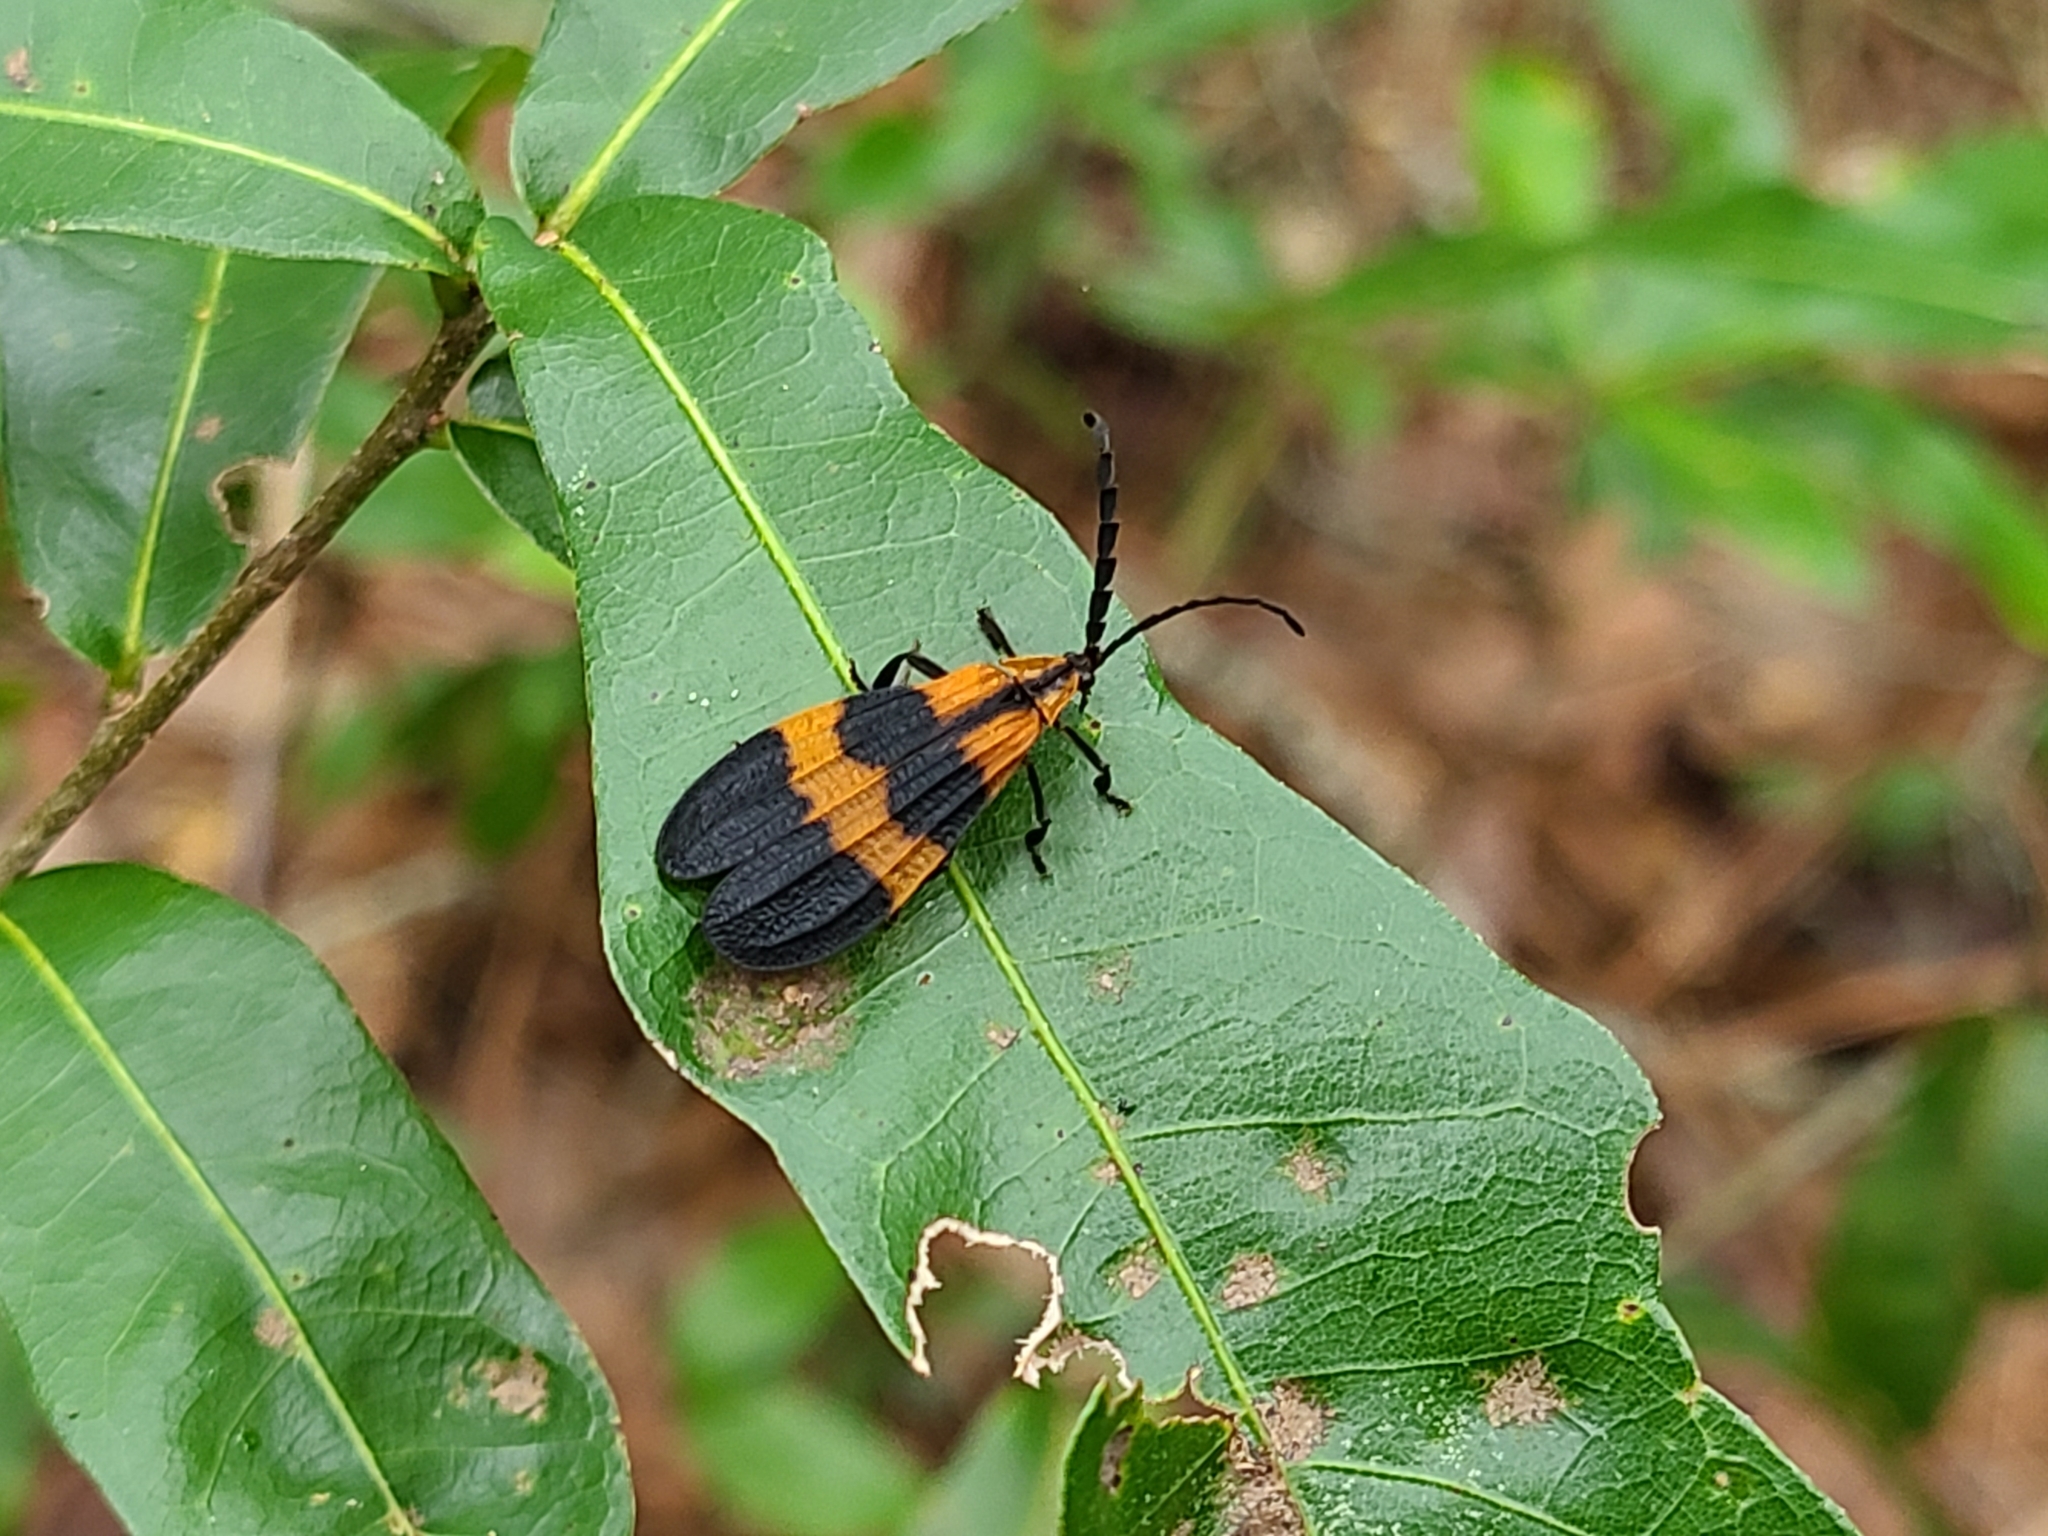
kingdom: Animalia
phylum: Arthropoda
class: Insecta
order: Coleoptera
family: Lycidae
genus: Calopteron
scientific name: Calopteron reticulatum
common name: Banded net-winged beetle
